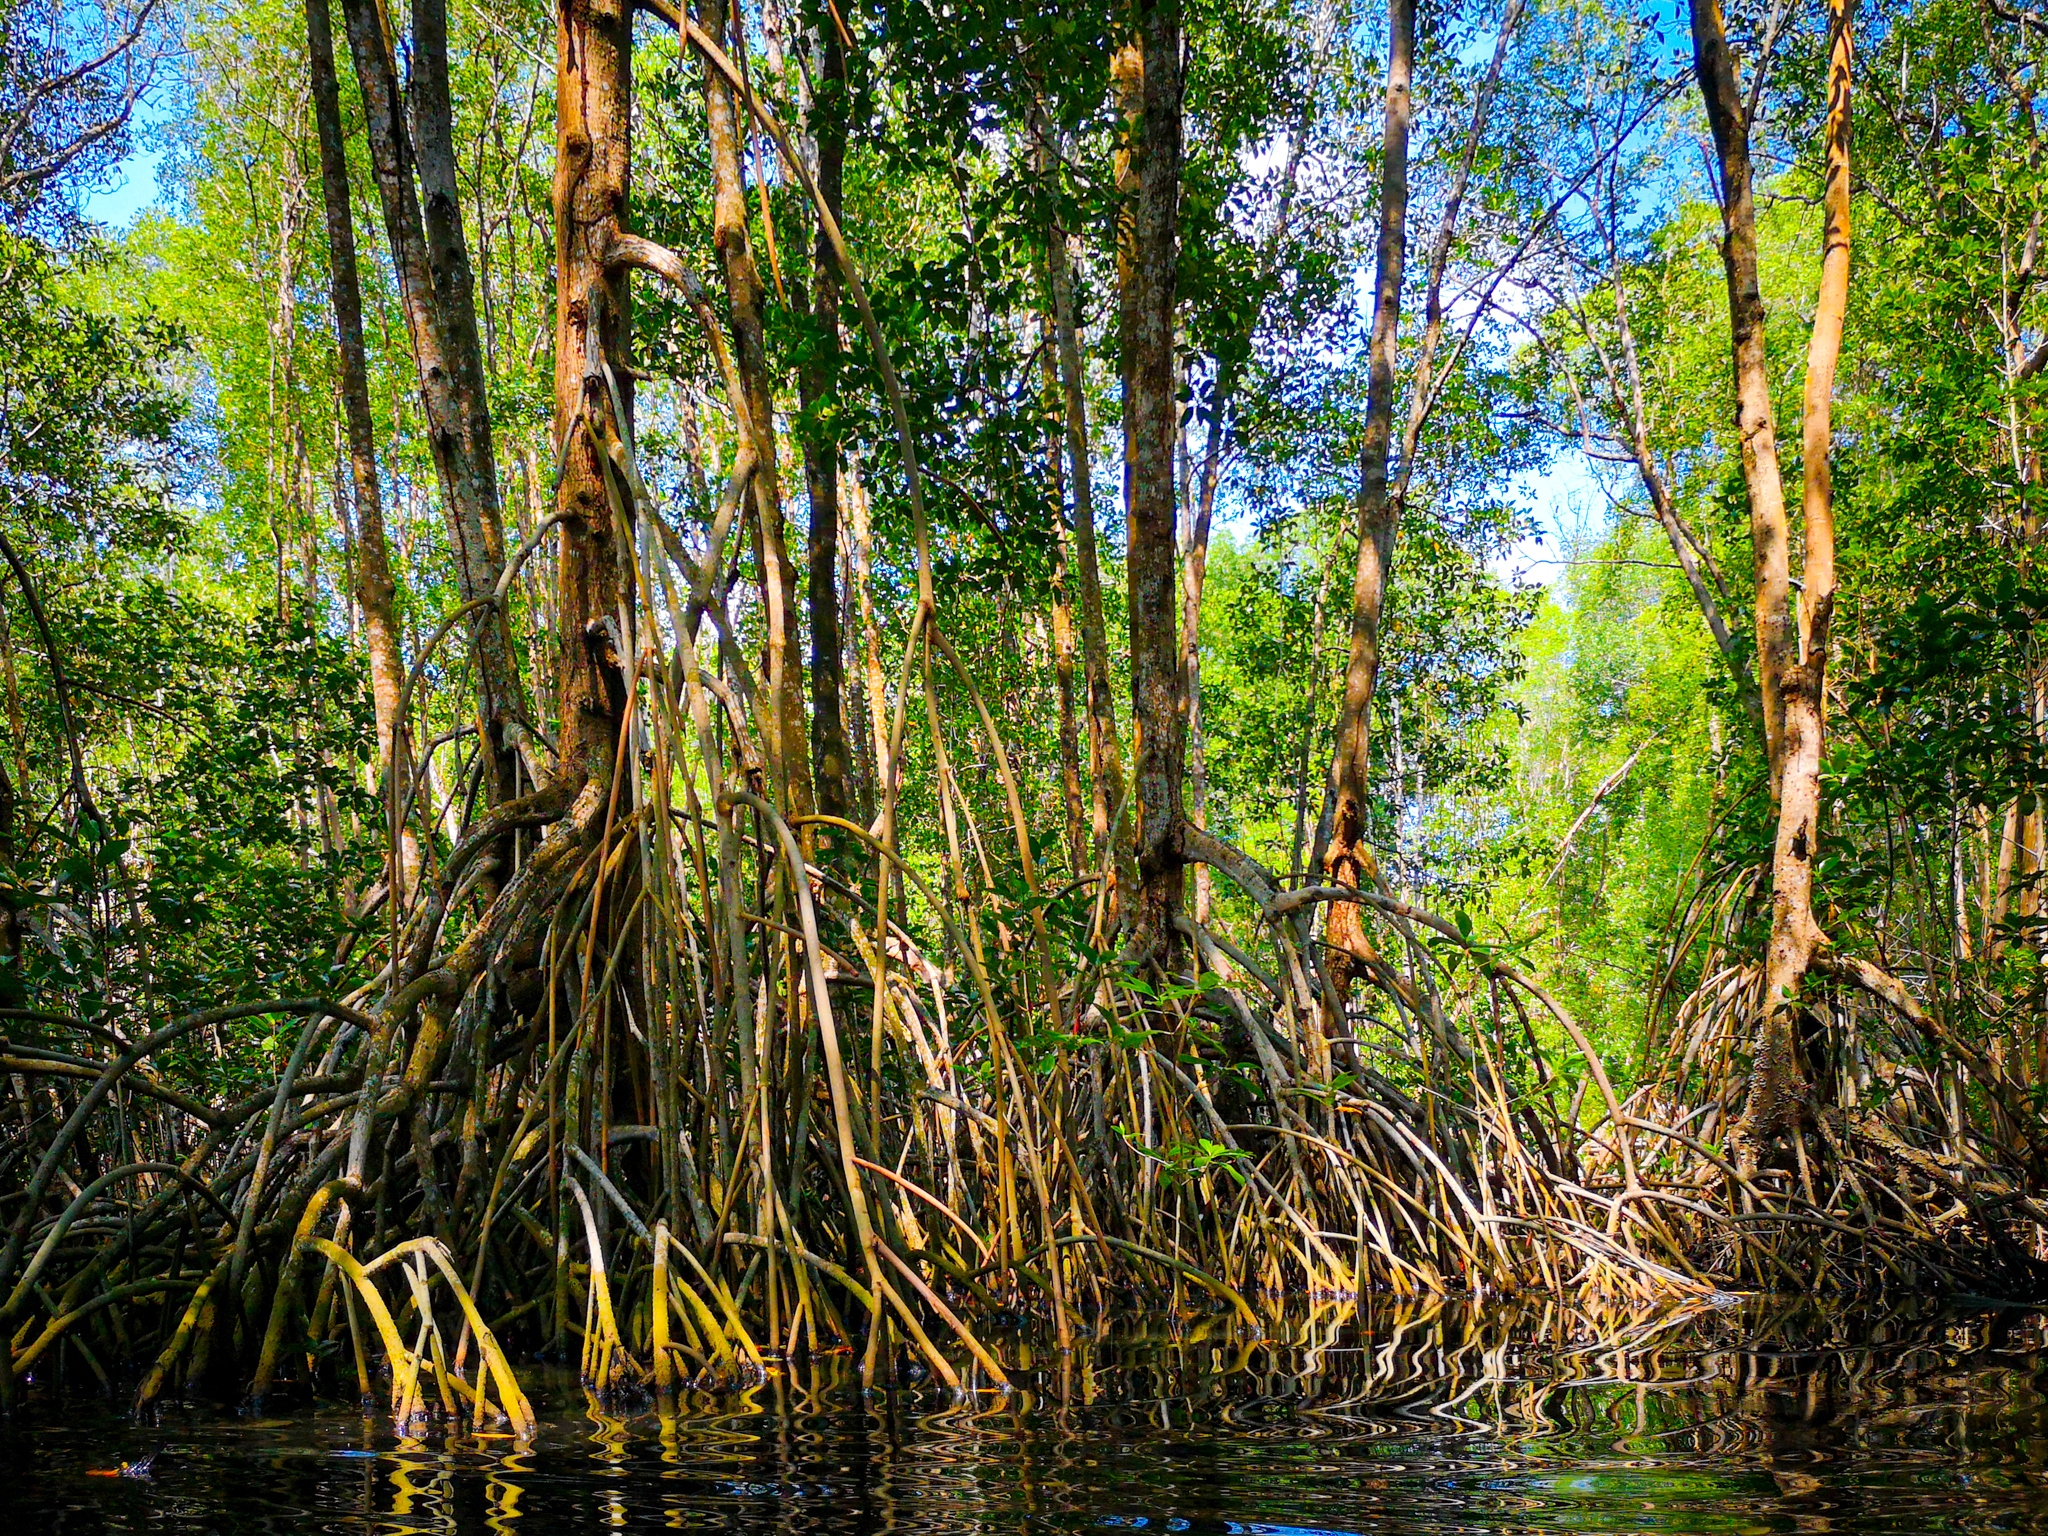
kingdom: Plantae
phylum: Tracheophyta
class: Magnoliopsida
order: Malpighiales
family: Rhizophoraceae
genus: Rhizophora
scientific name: Rhizophora mangle
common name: Red mangrove
